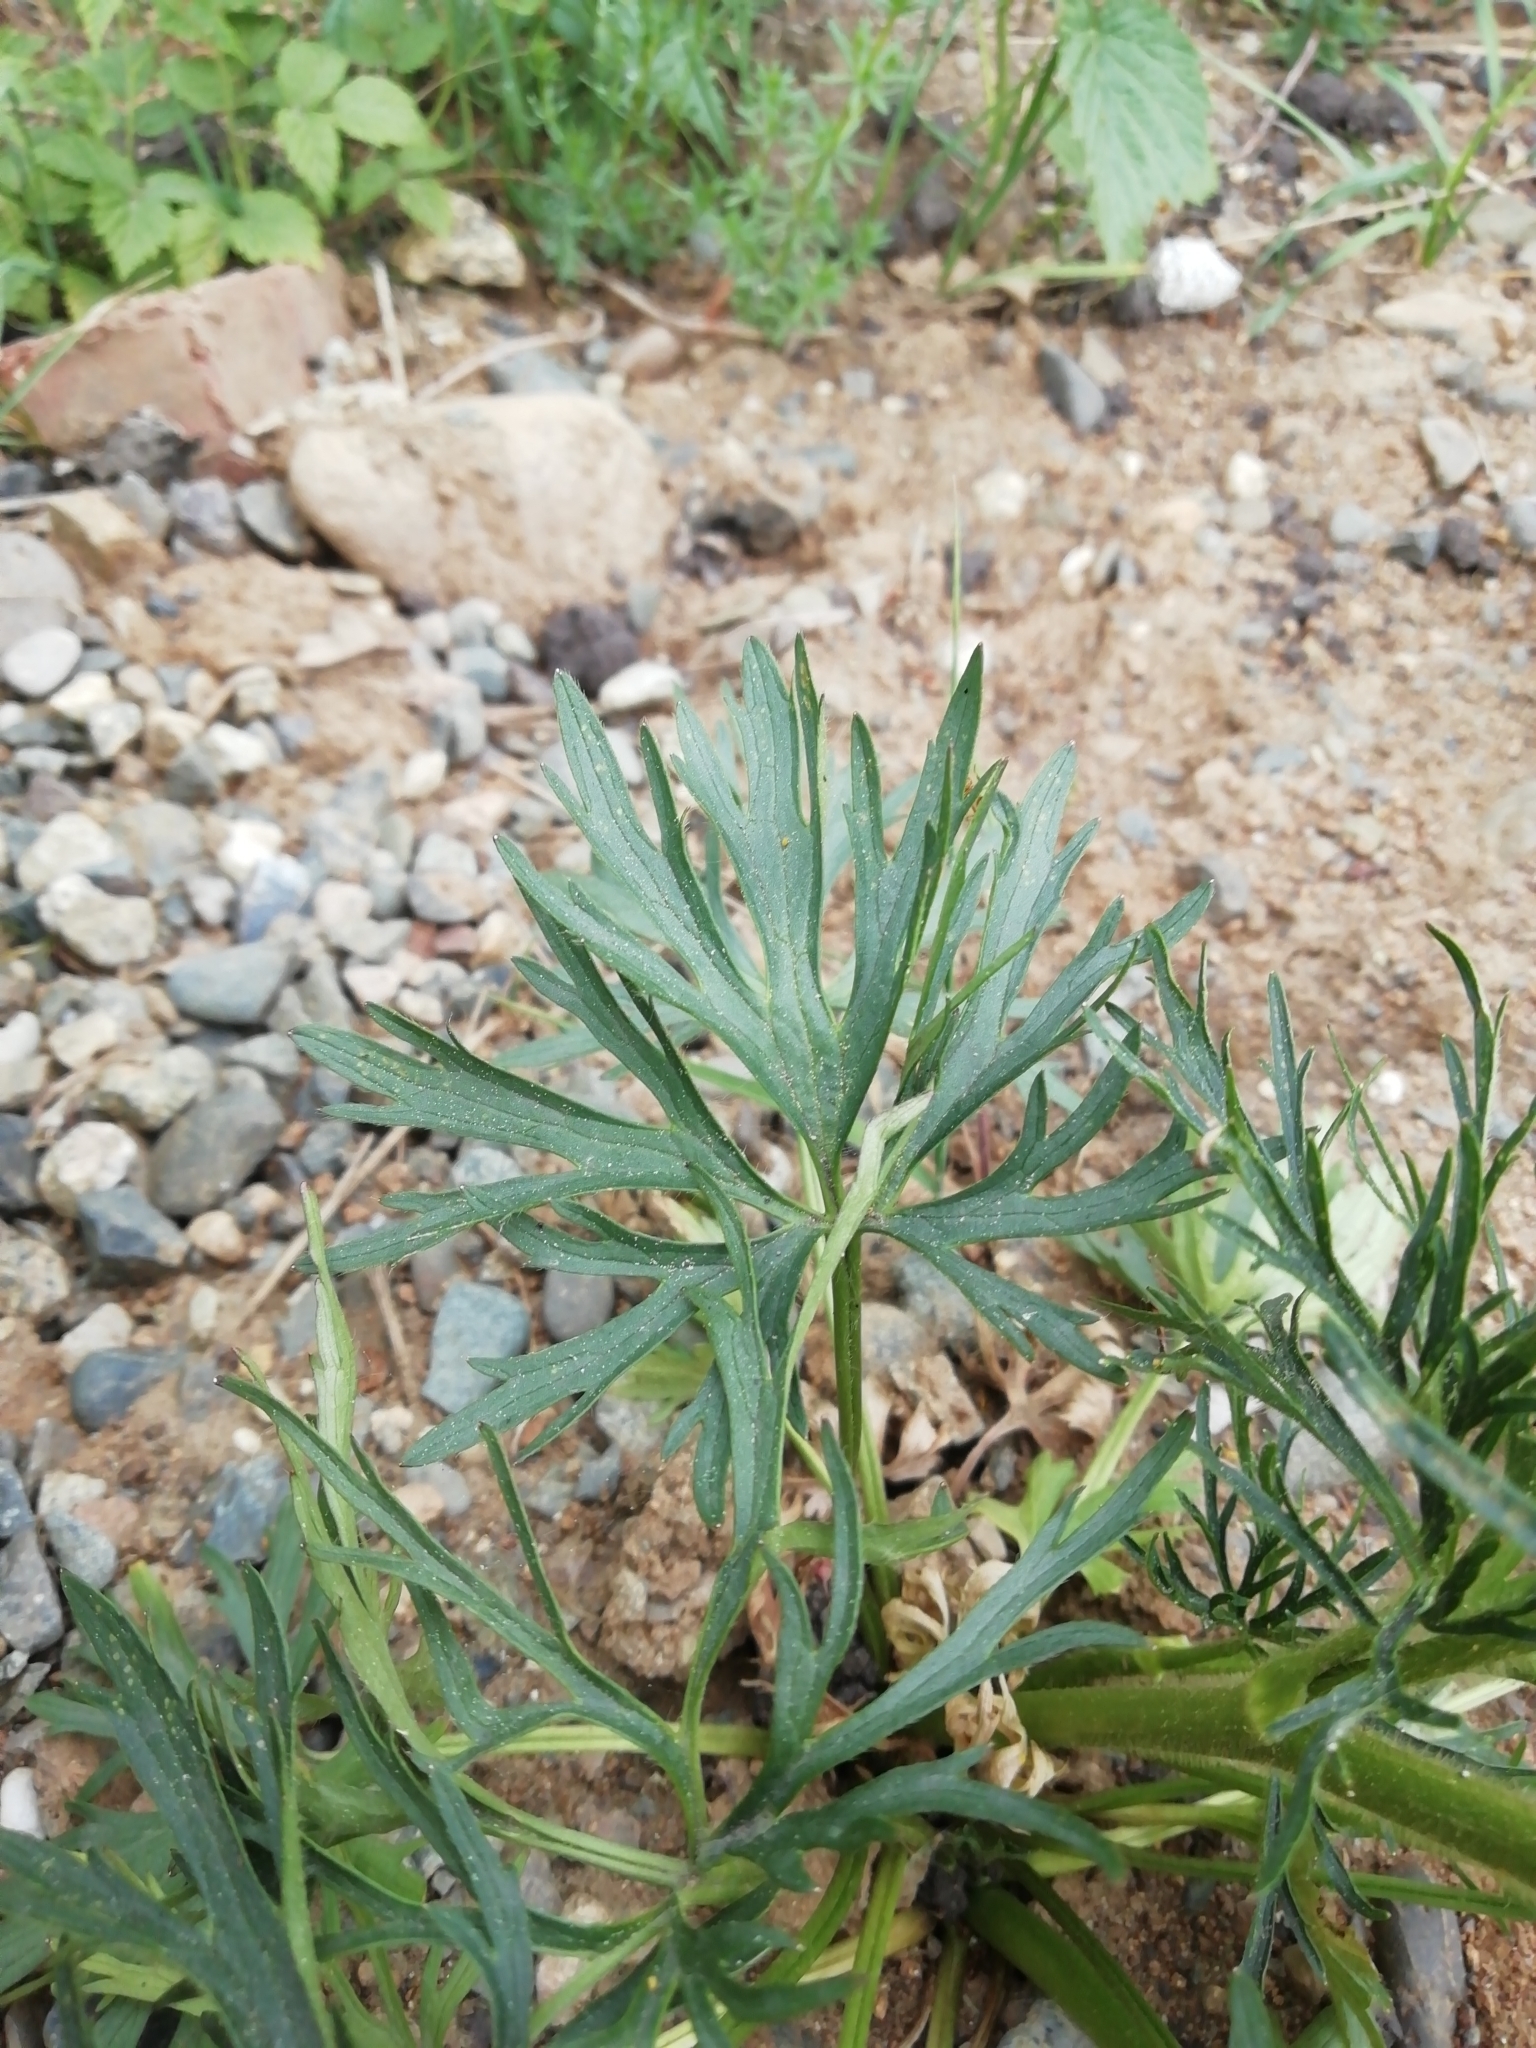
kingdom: Plantae
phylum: Tracheophyta
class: Magnoliopsida
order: Ranunculales
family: Ranunculaceae
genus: Ranunculus
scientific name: Ranunculus polyanthemos
